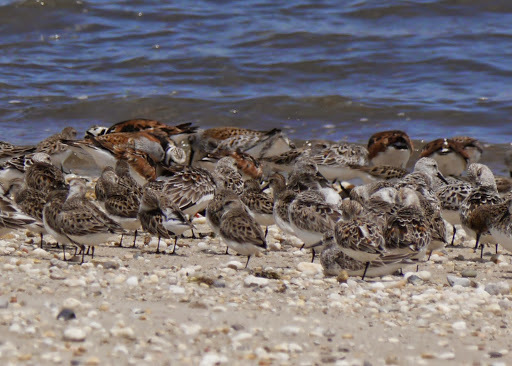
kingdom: Animalia
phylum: Chordata
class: Aves
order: Charadriiformes
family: Scolopacidae
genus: Calidris
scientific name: Calidris pusilla
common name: Semipalmated sandpiper
